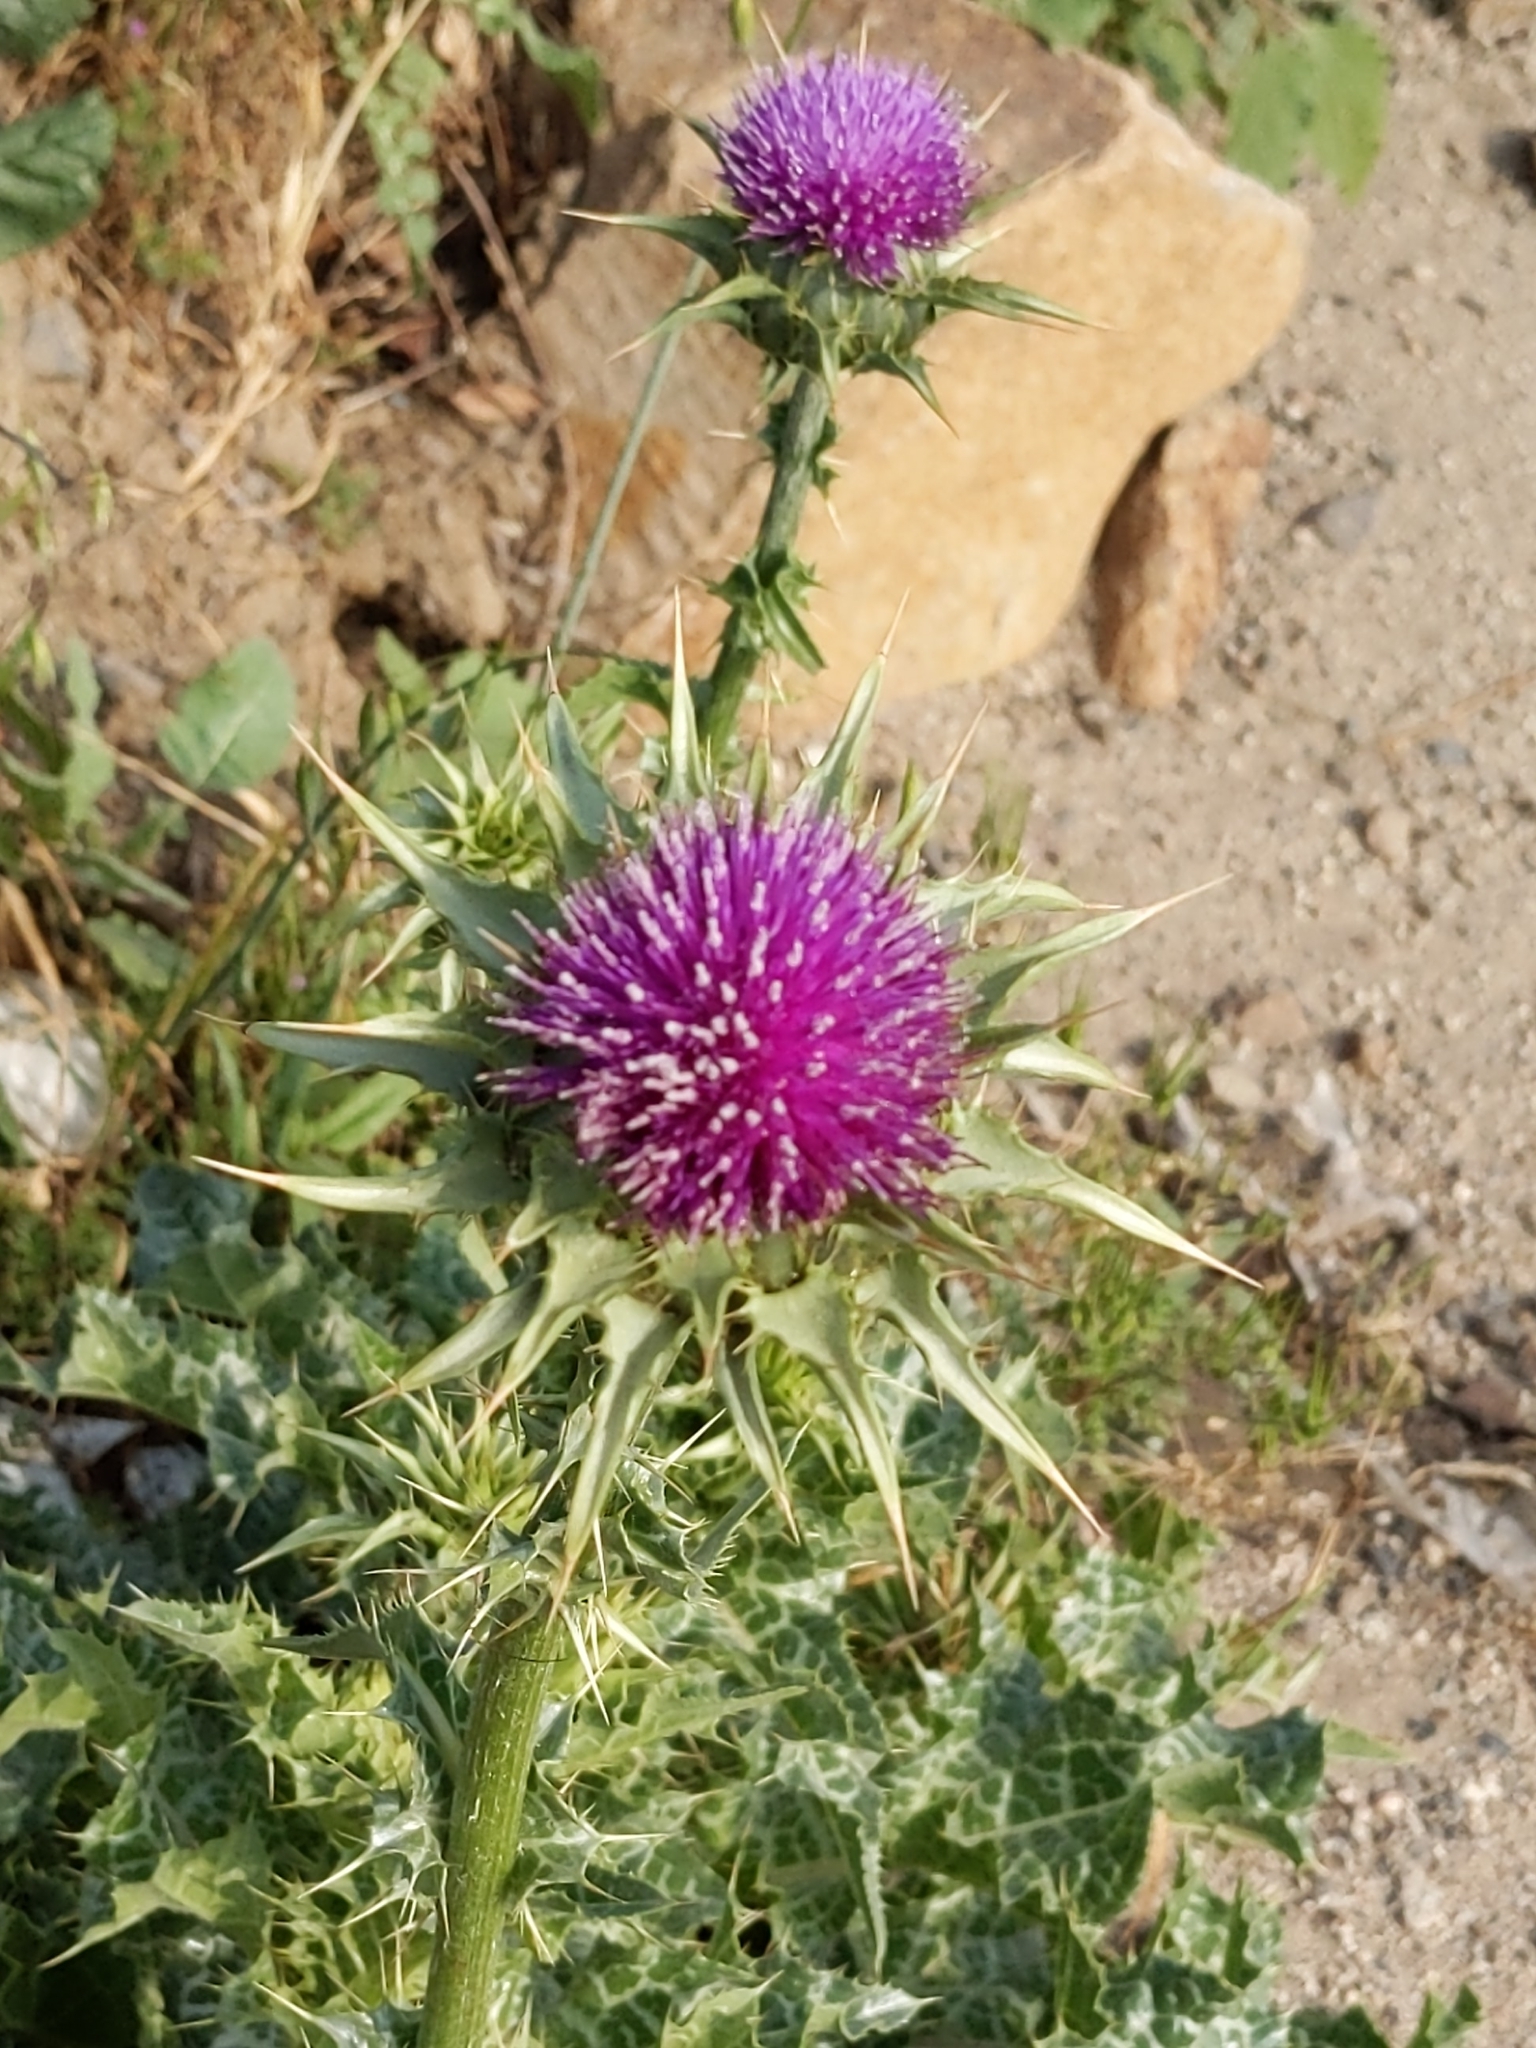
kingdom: Plantae
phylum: Tracheophyta
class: Magnoliopsida
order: Asterales
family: Asteraceae
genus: Silybum
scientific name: Silybum marianum
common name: Milk thistle
